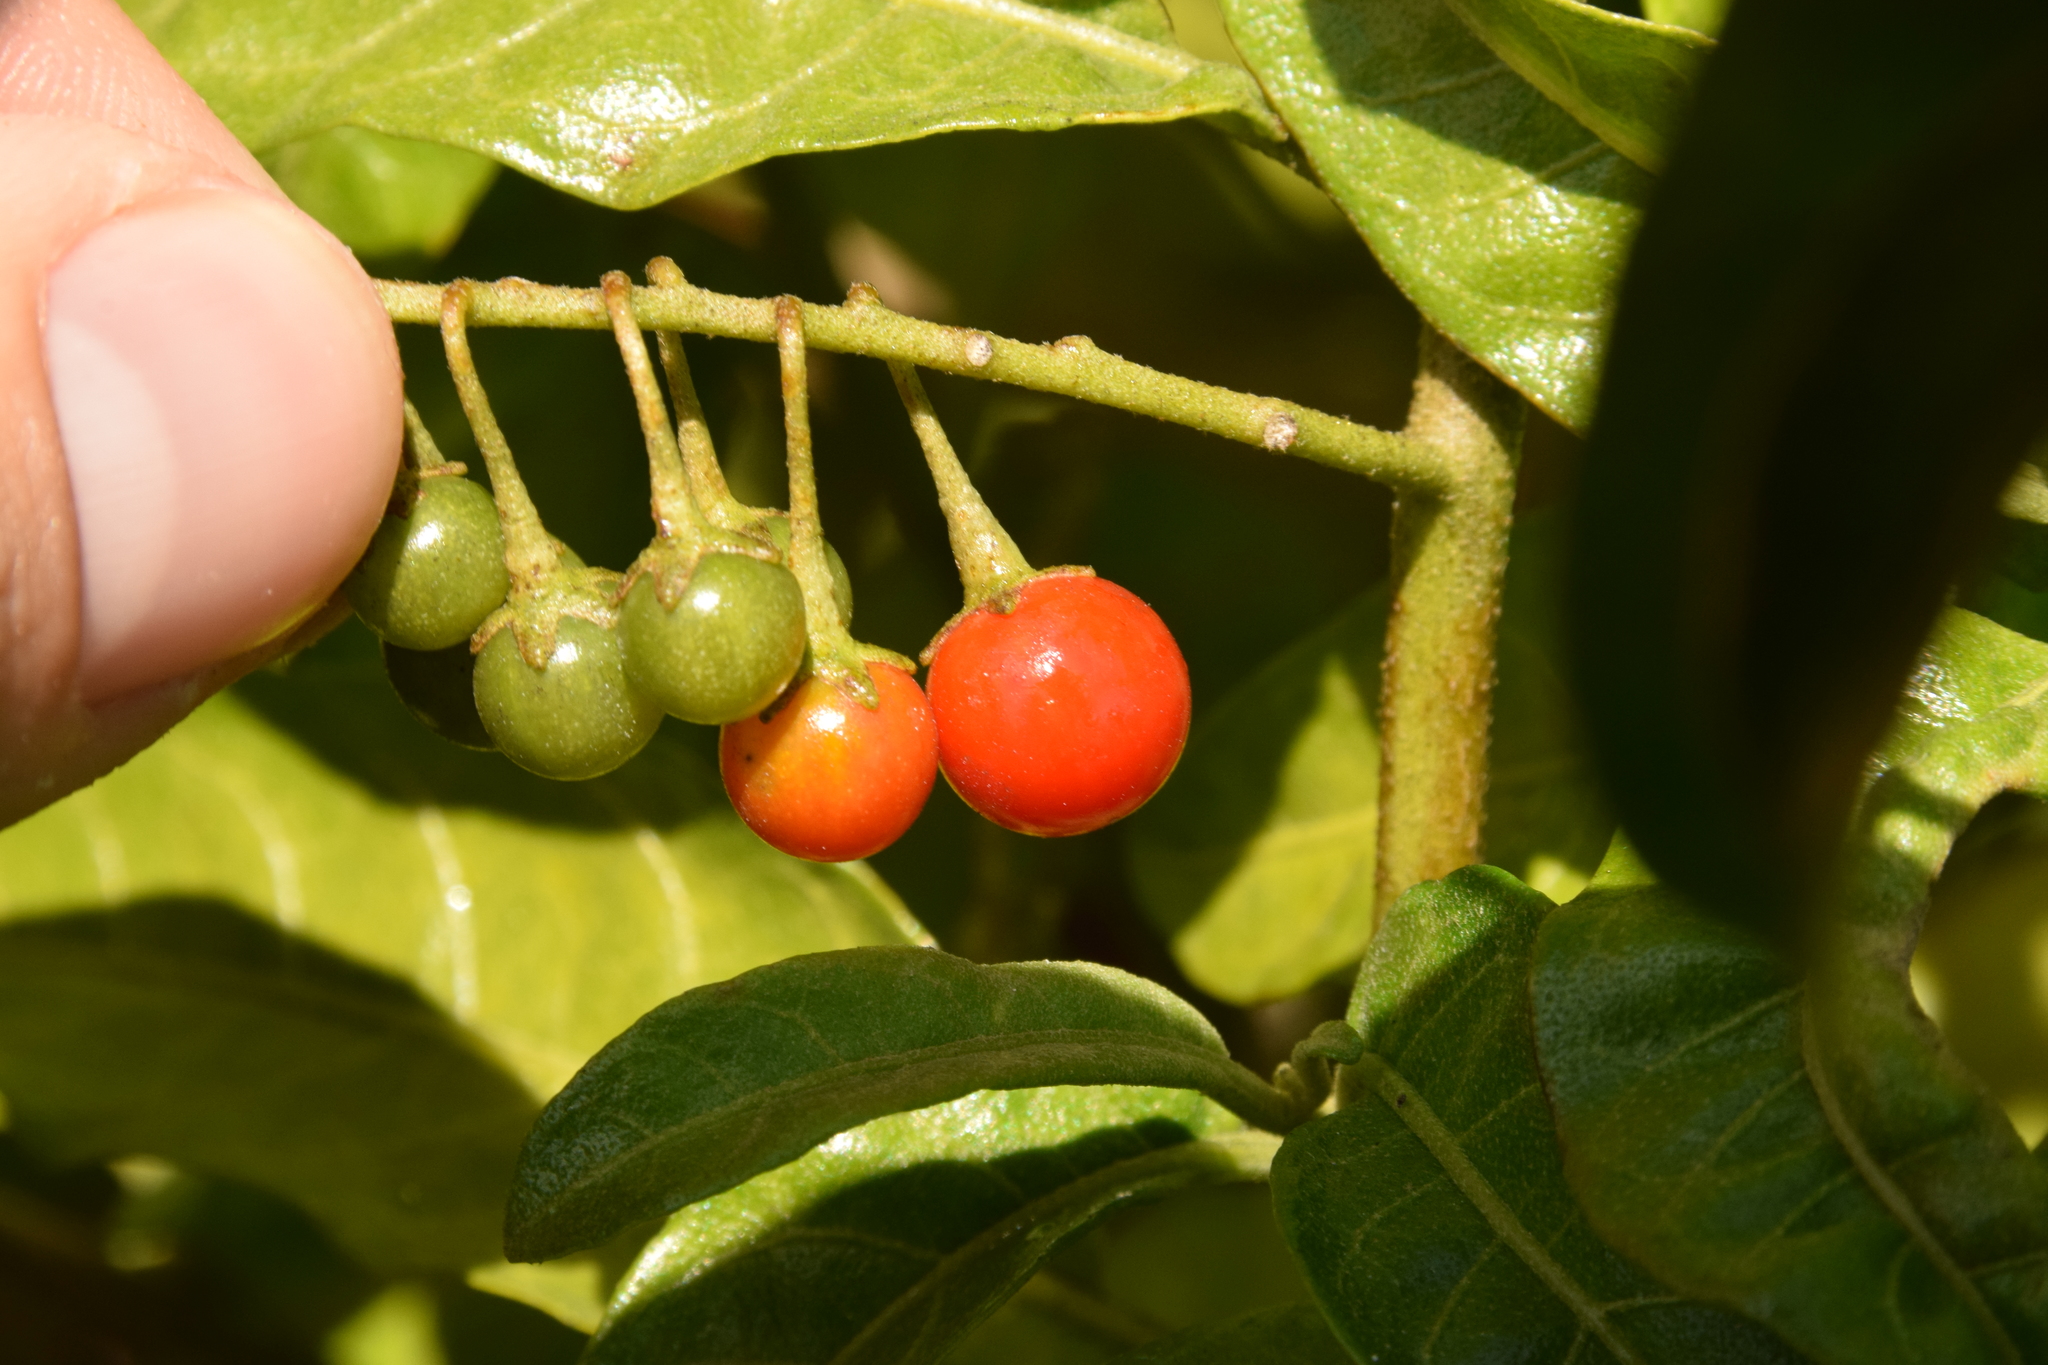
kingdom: Plantae
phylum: Tracheophyta
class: Magnoliopsida
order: Solanales
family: Solanaceae
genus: Solanum
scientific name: Solanum bahamense
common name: Canker-berry
